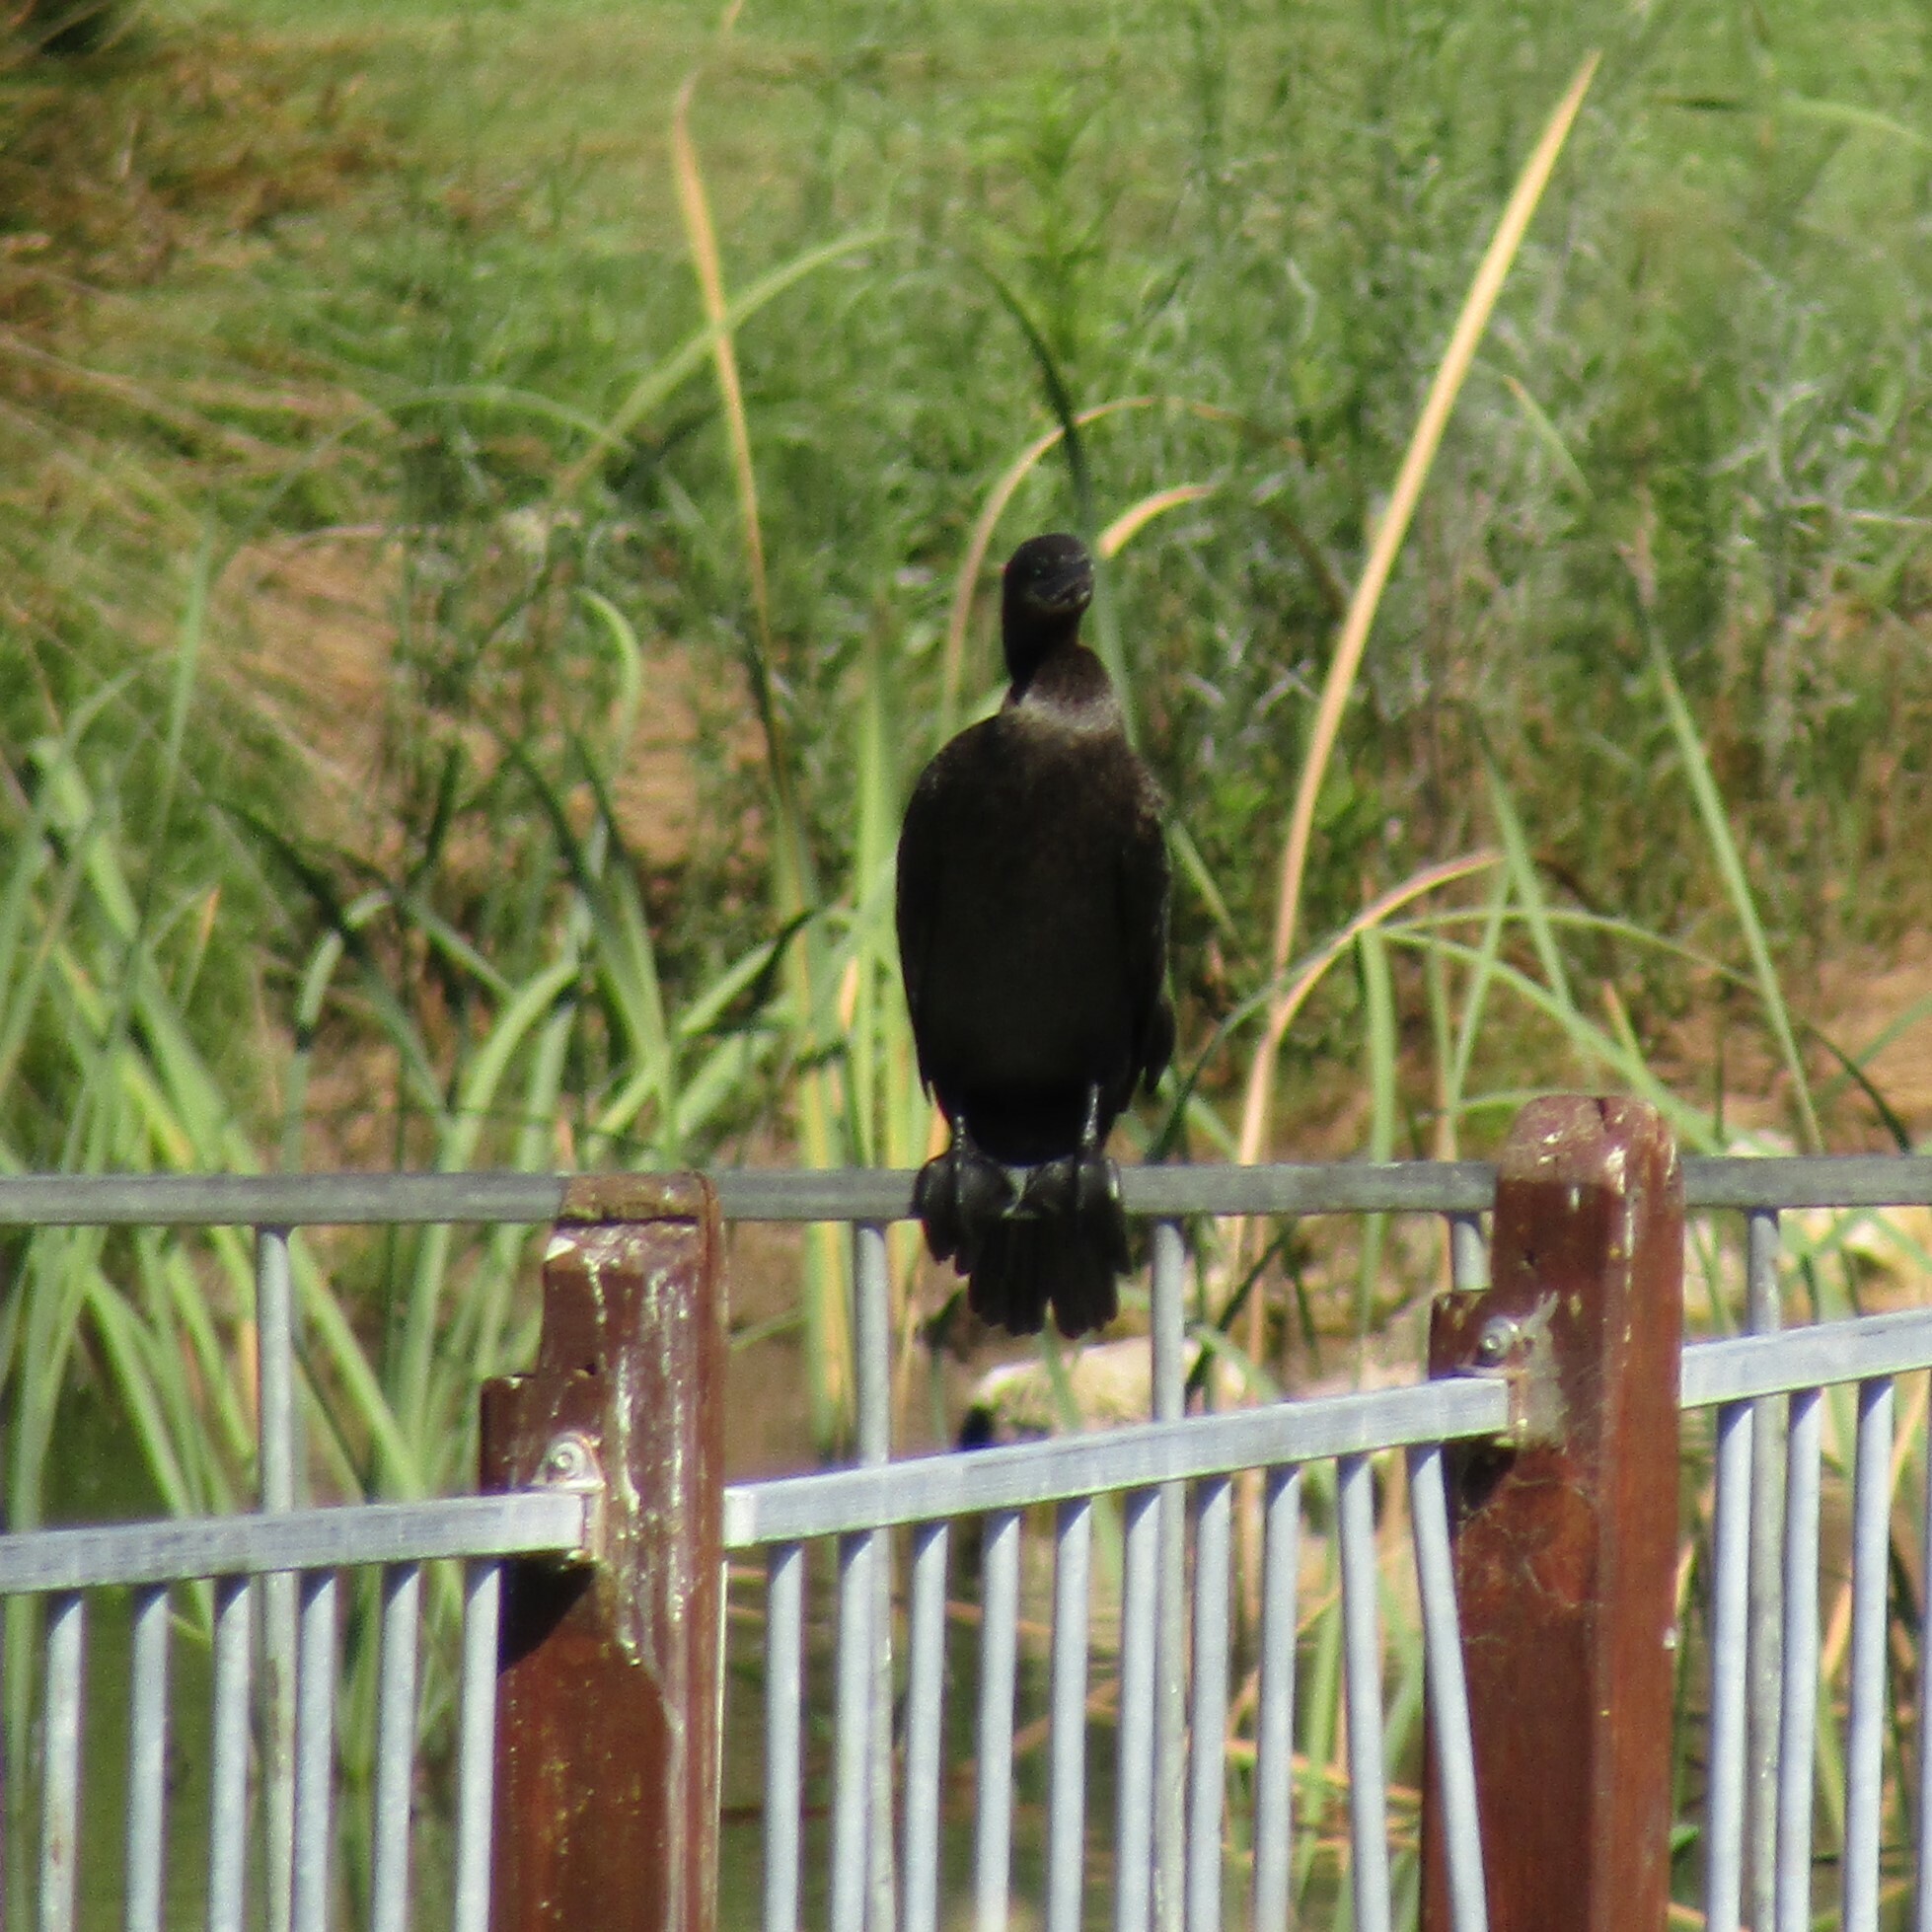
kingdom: Animalia
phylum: Chordata
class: Aves
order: Suliformes
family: Phalacrocoracidae
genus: Phalacrocorax
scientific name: Phalacrocorax sulcirostris
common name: Little black cormorant
